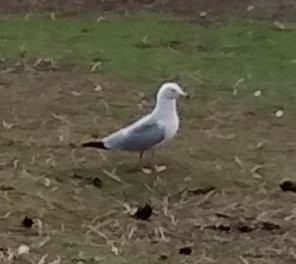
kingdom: Animalia
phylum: Chordata
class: Aves
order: Charadriiformes
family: Laridae
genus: Larus
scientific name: Larus delawarensis
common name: Ring-billed gull
